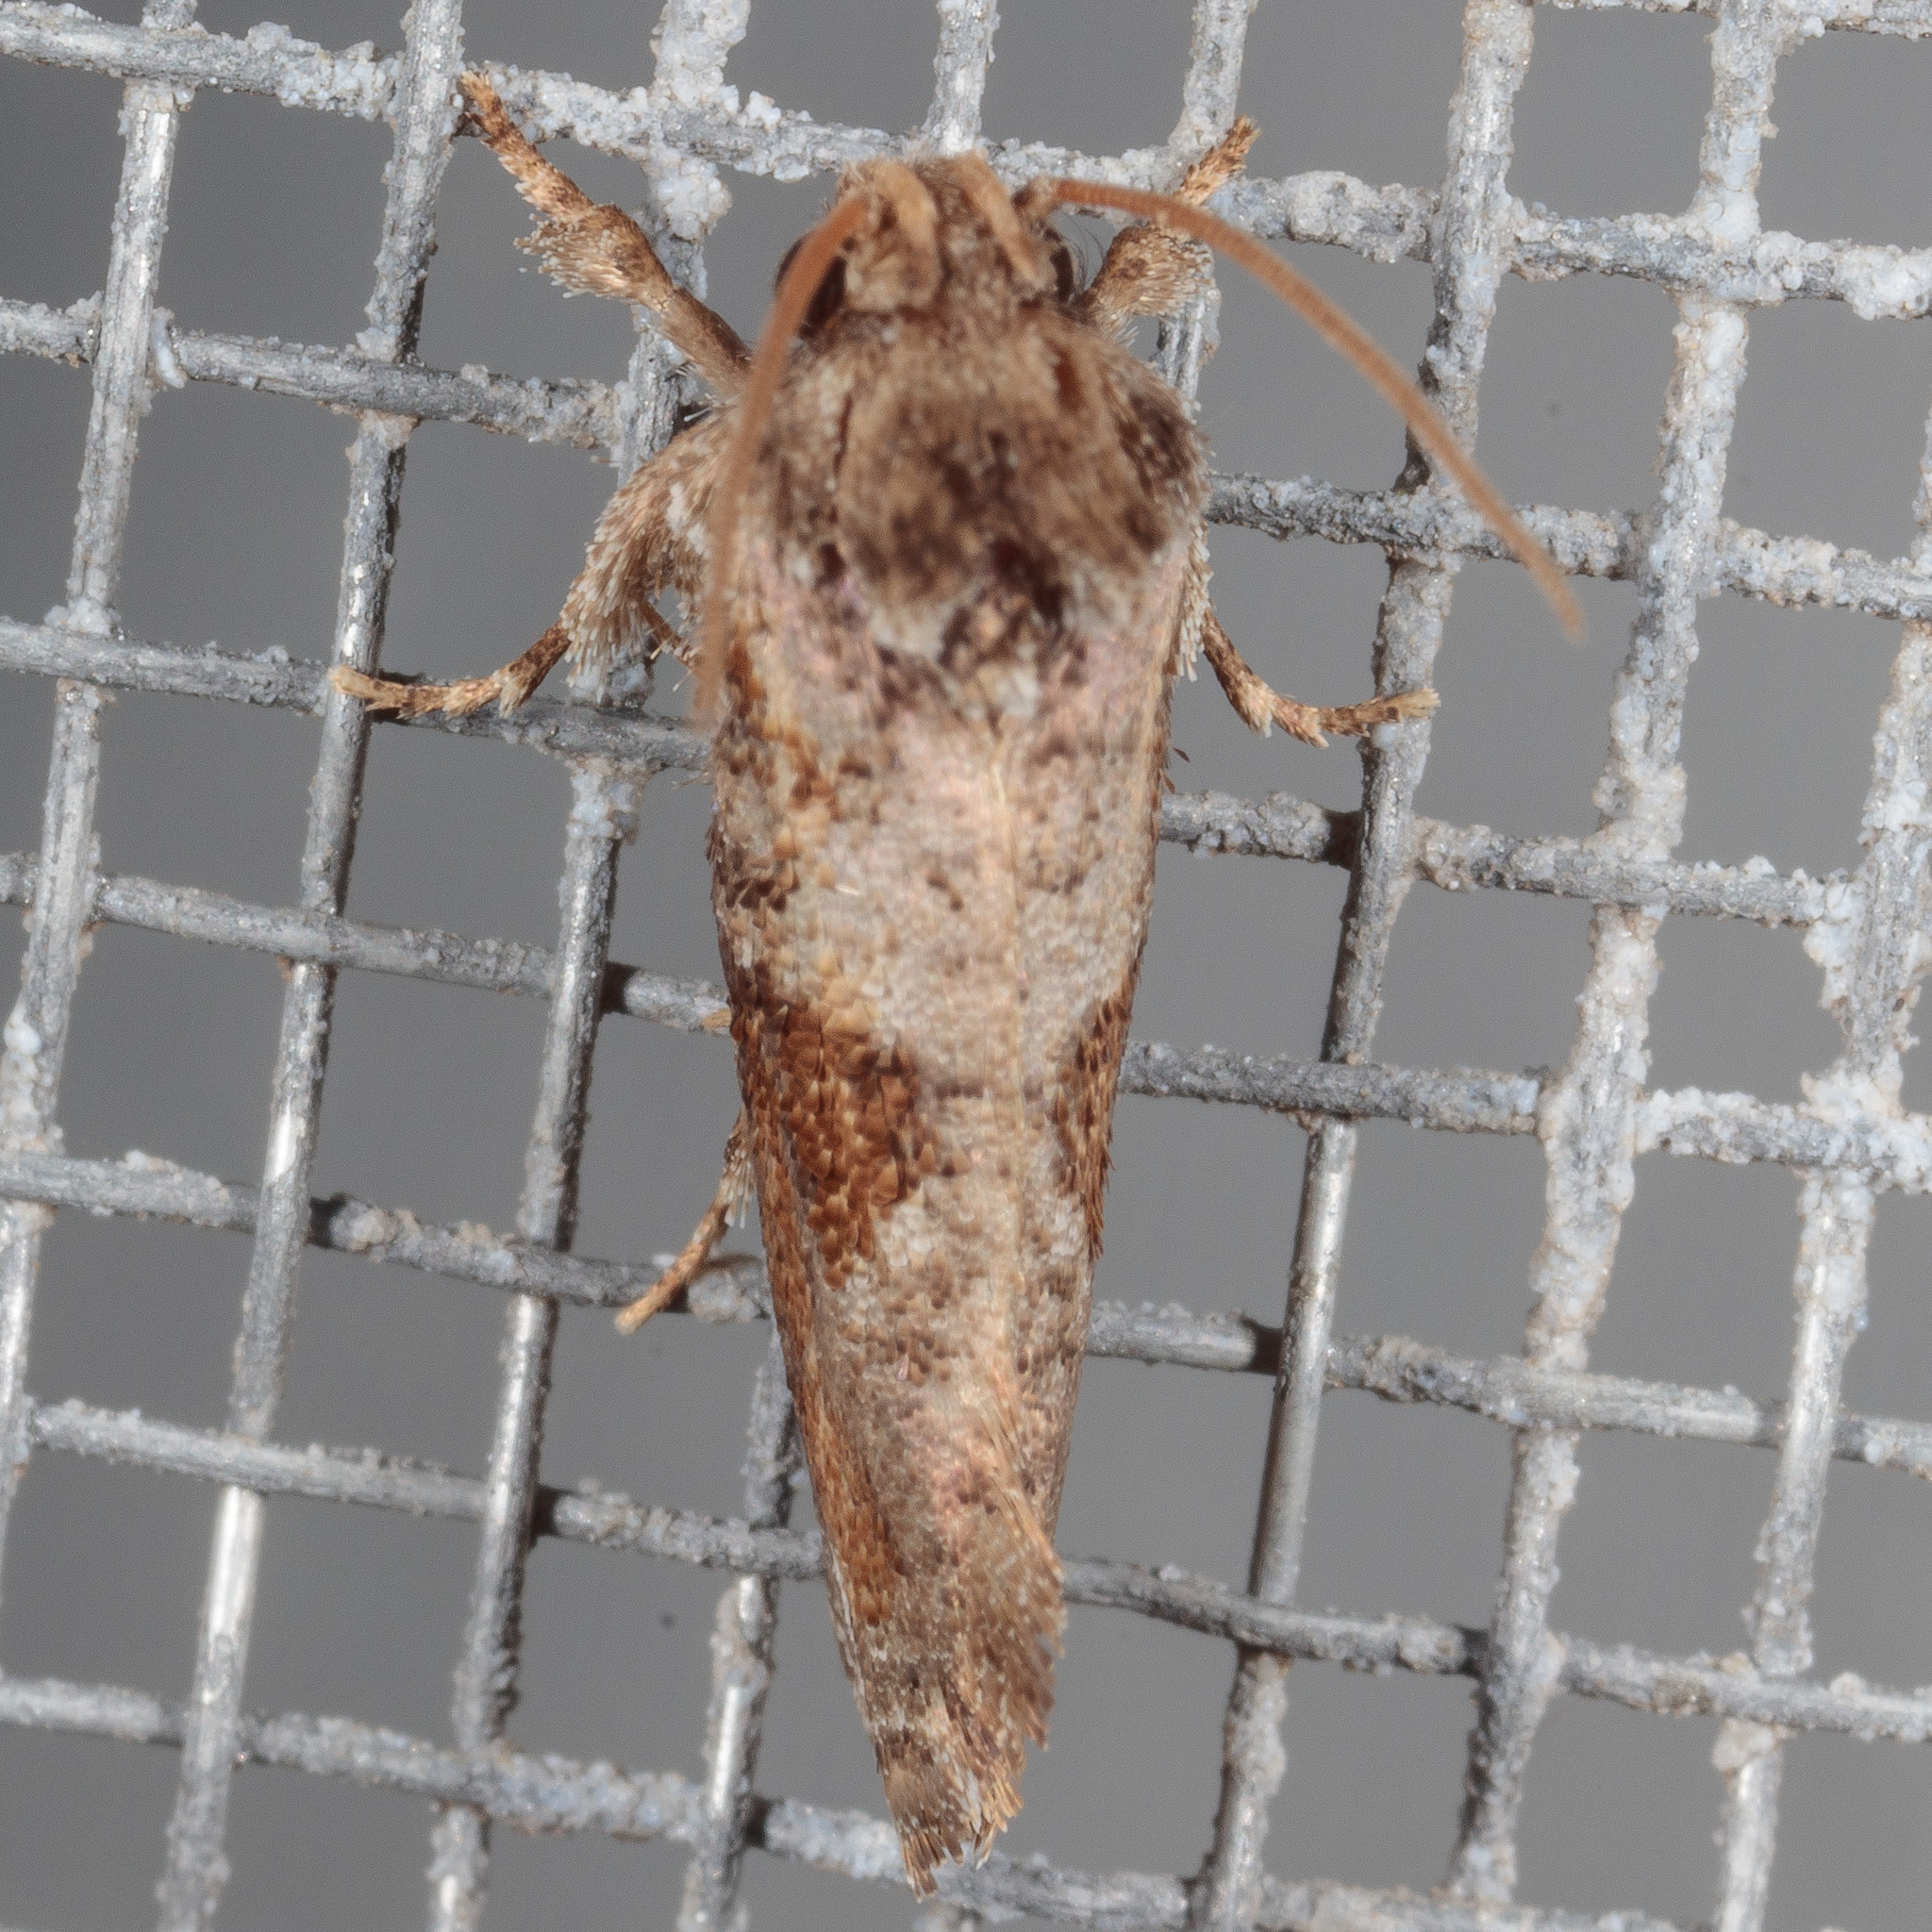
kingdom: Animalia
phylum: Arthropoda
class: Insecta
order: Lepidoptera
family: Tineidae
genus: Acrolophus
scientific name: Acrolophus piger
